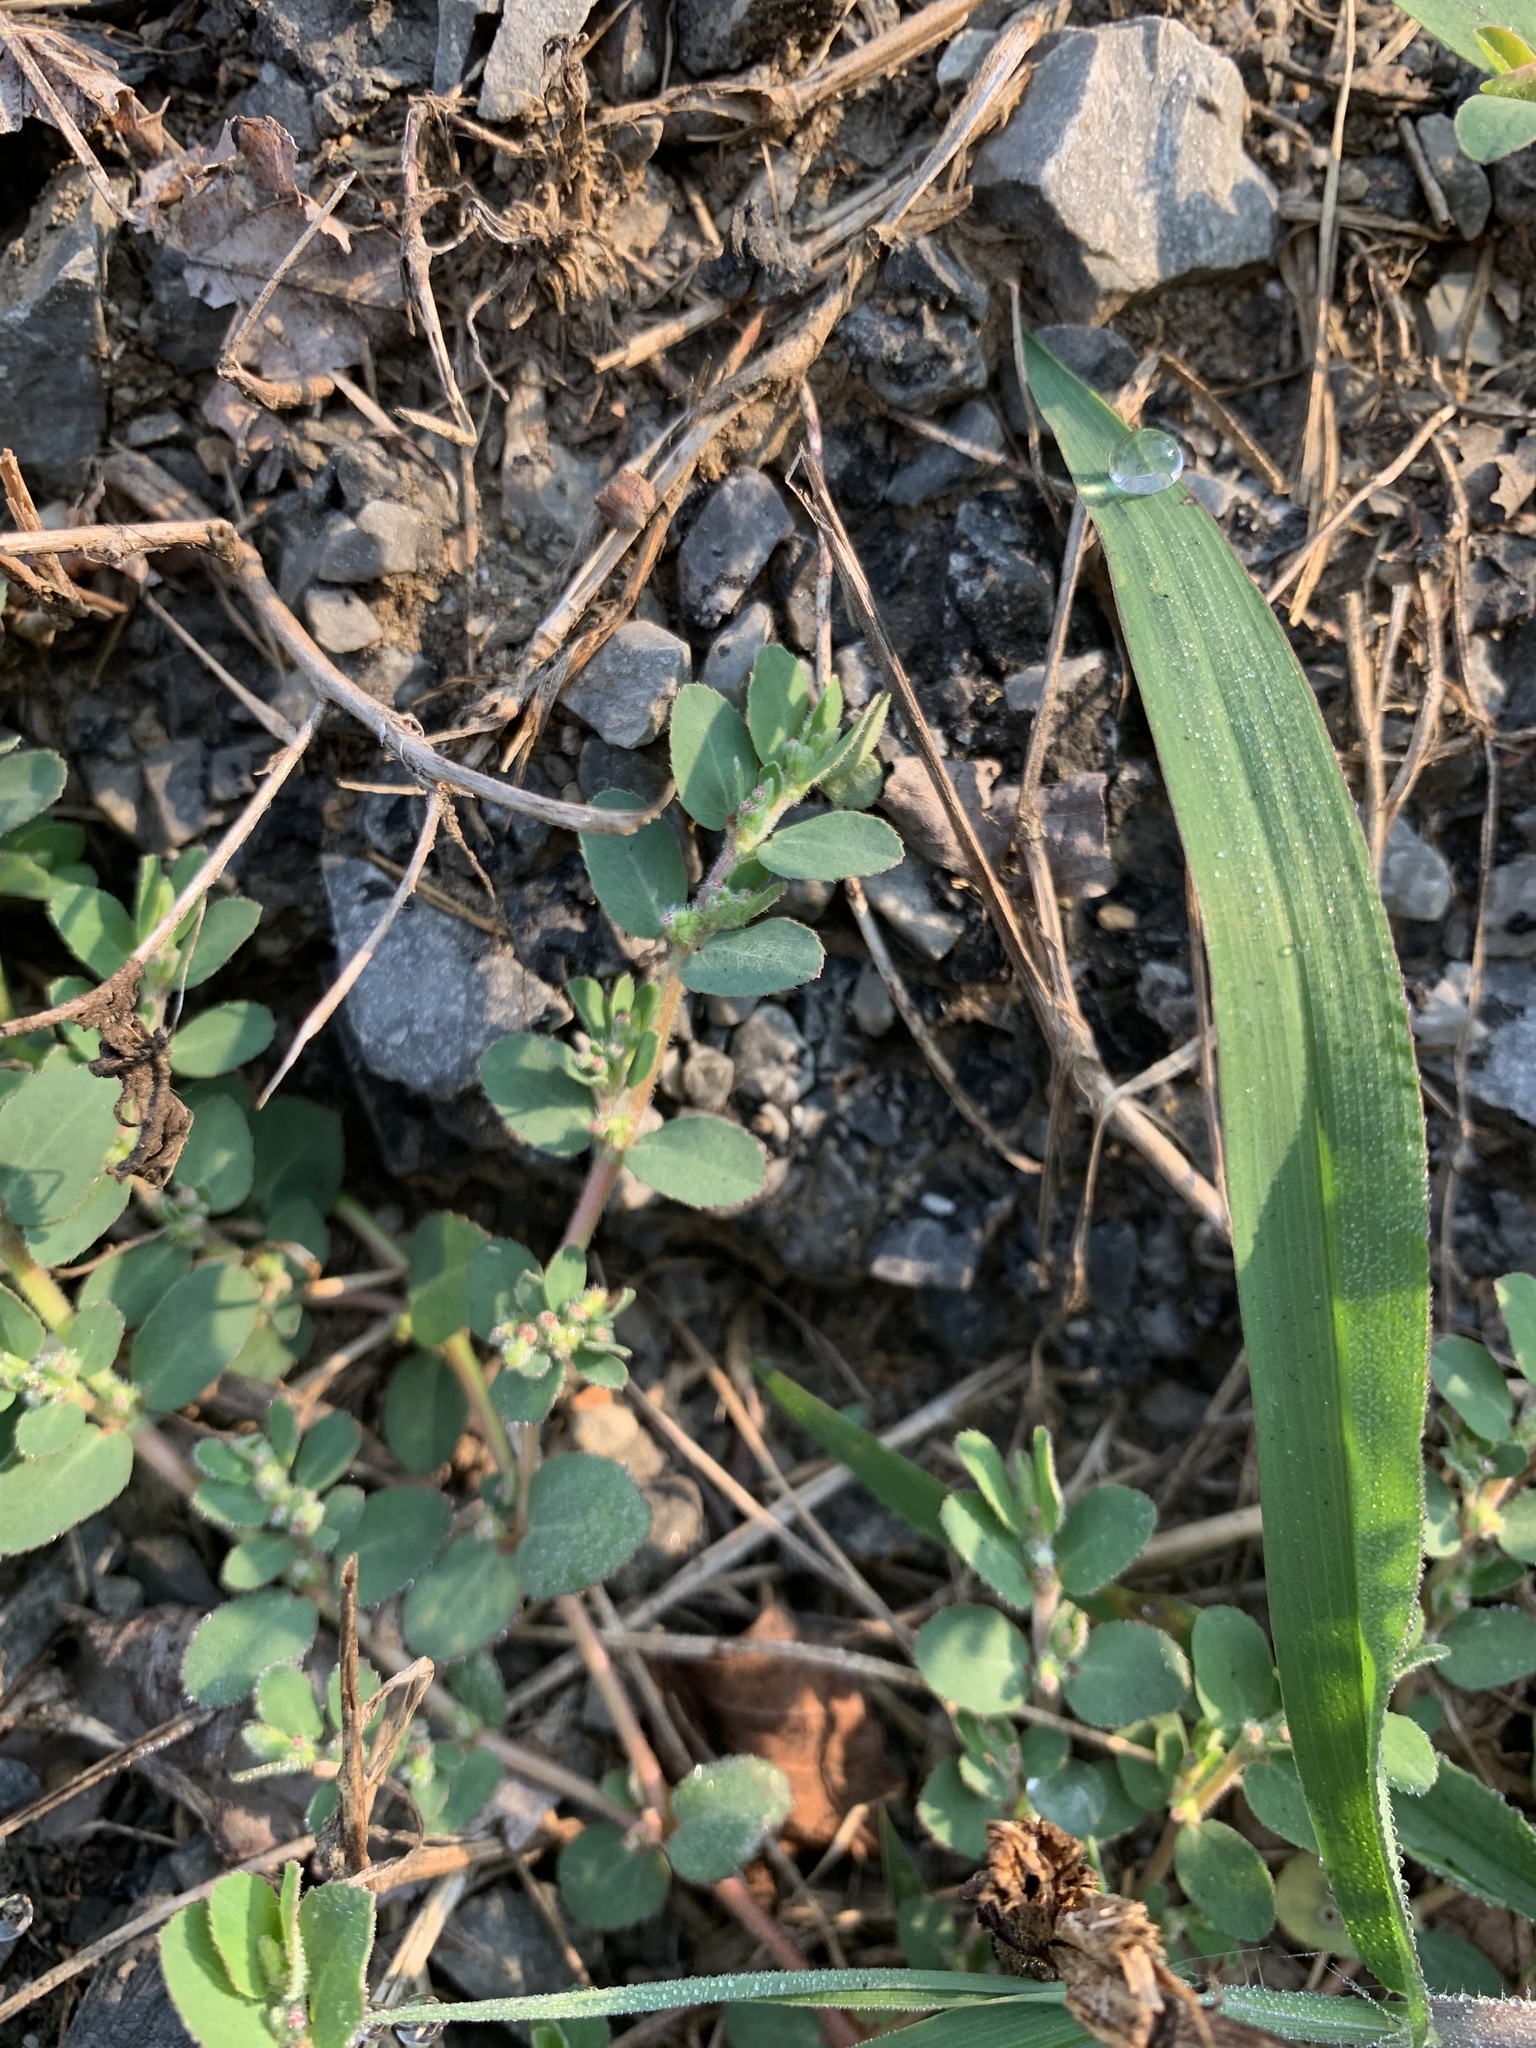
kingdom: Plantae
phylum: Tracheophyta
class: Magnoliopsida
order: Malpighiales
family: Euphorbiaceae
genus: Euphorbia
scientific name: Euphorbia prostrata
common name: Prostrate sandmat
